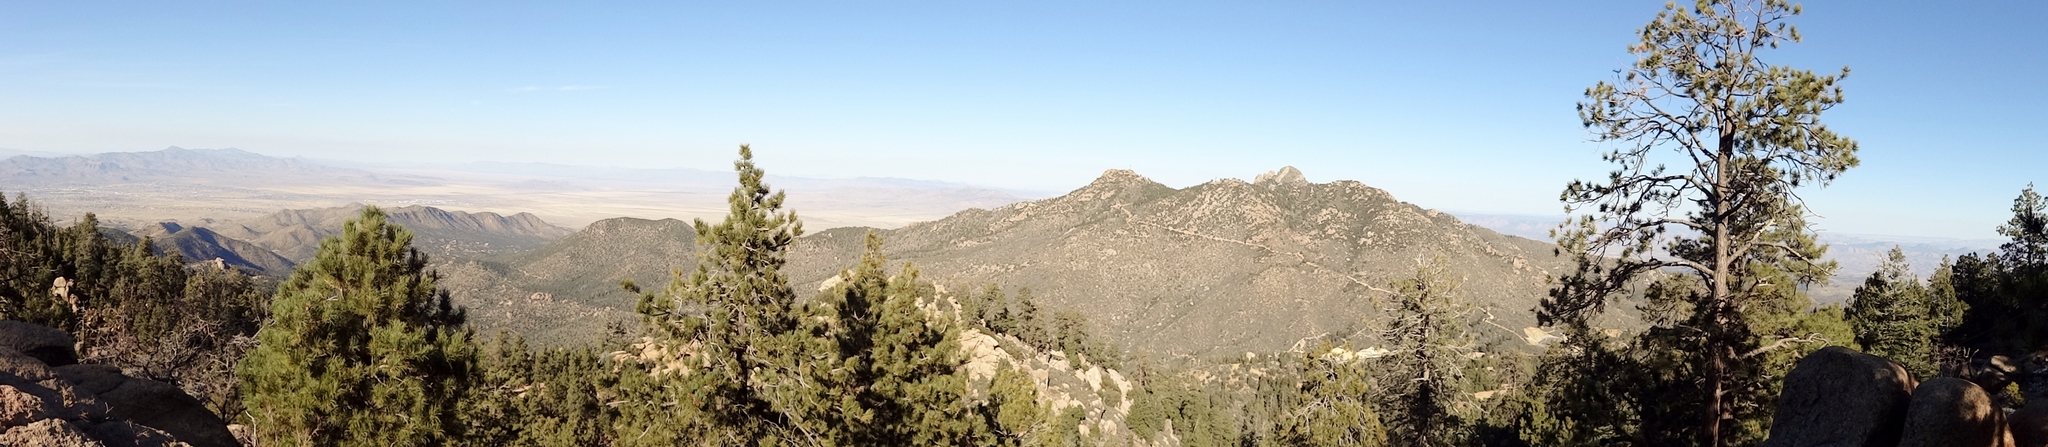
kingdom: Plantae
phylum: Tracheophyta
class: Pinopsida
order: Pinales
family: Pinaceae
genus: Pinus
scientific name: Pinus ponderosa
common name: Western yellow-pine
